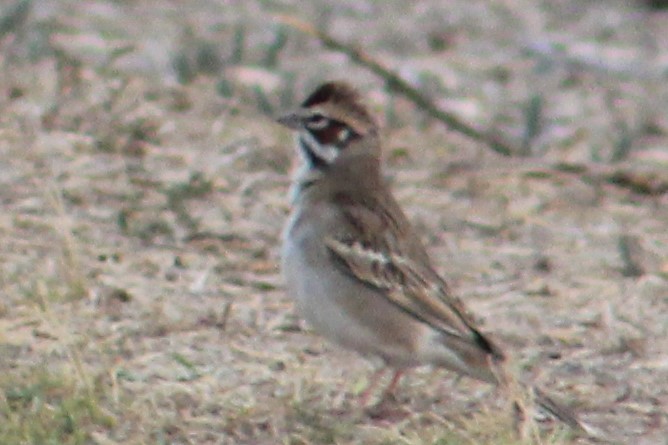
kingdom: Animalia
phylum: Chordata
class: Aves
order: Passeriformes
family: Passerellidae
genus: Chondestes
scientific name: Chondestes grammacus
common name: Lark sparrow
